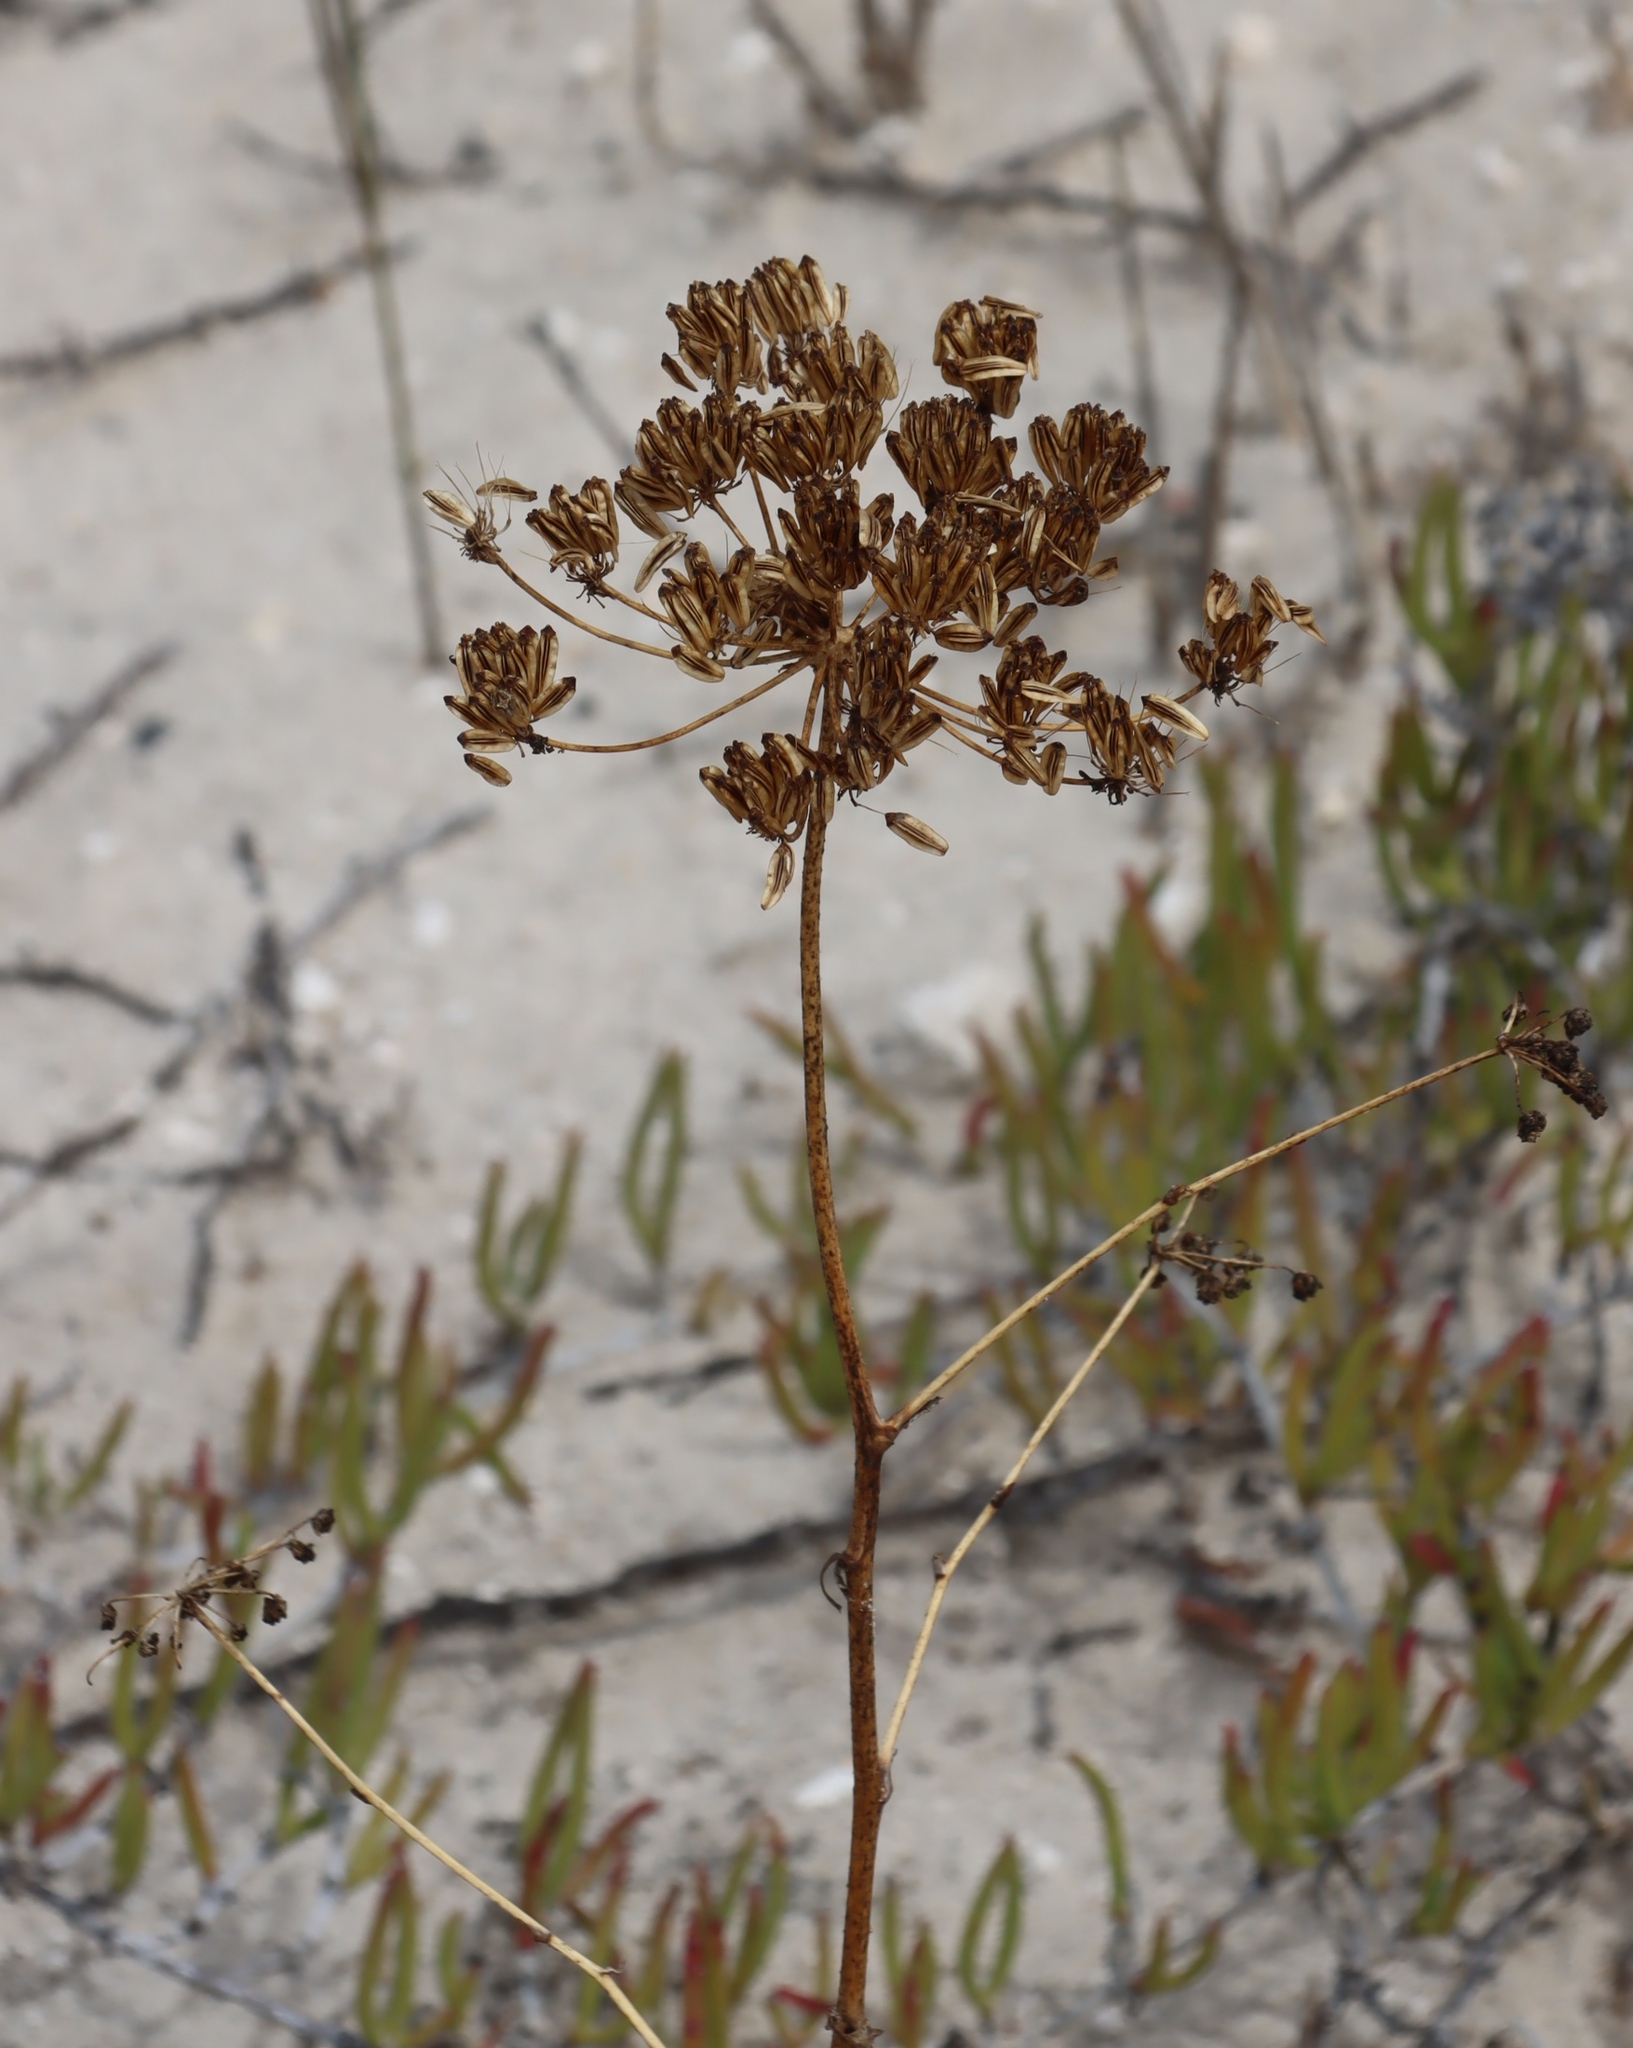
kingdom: Plantae
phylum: Tracheophyta
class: Magnoliopsida
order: Apiales
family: Apiaceae
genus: Annesorhiza
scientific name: Annesorhiza macrocarpa
